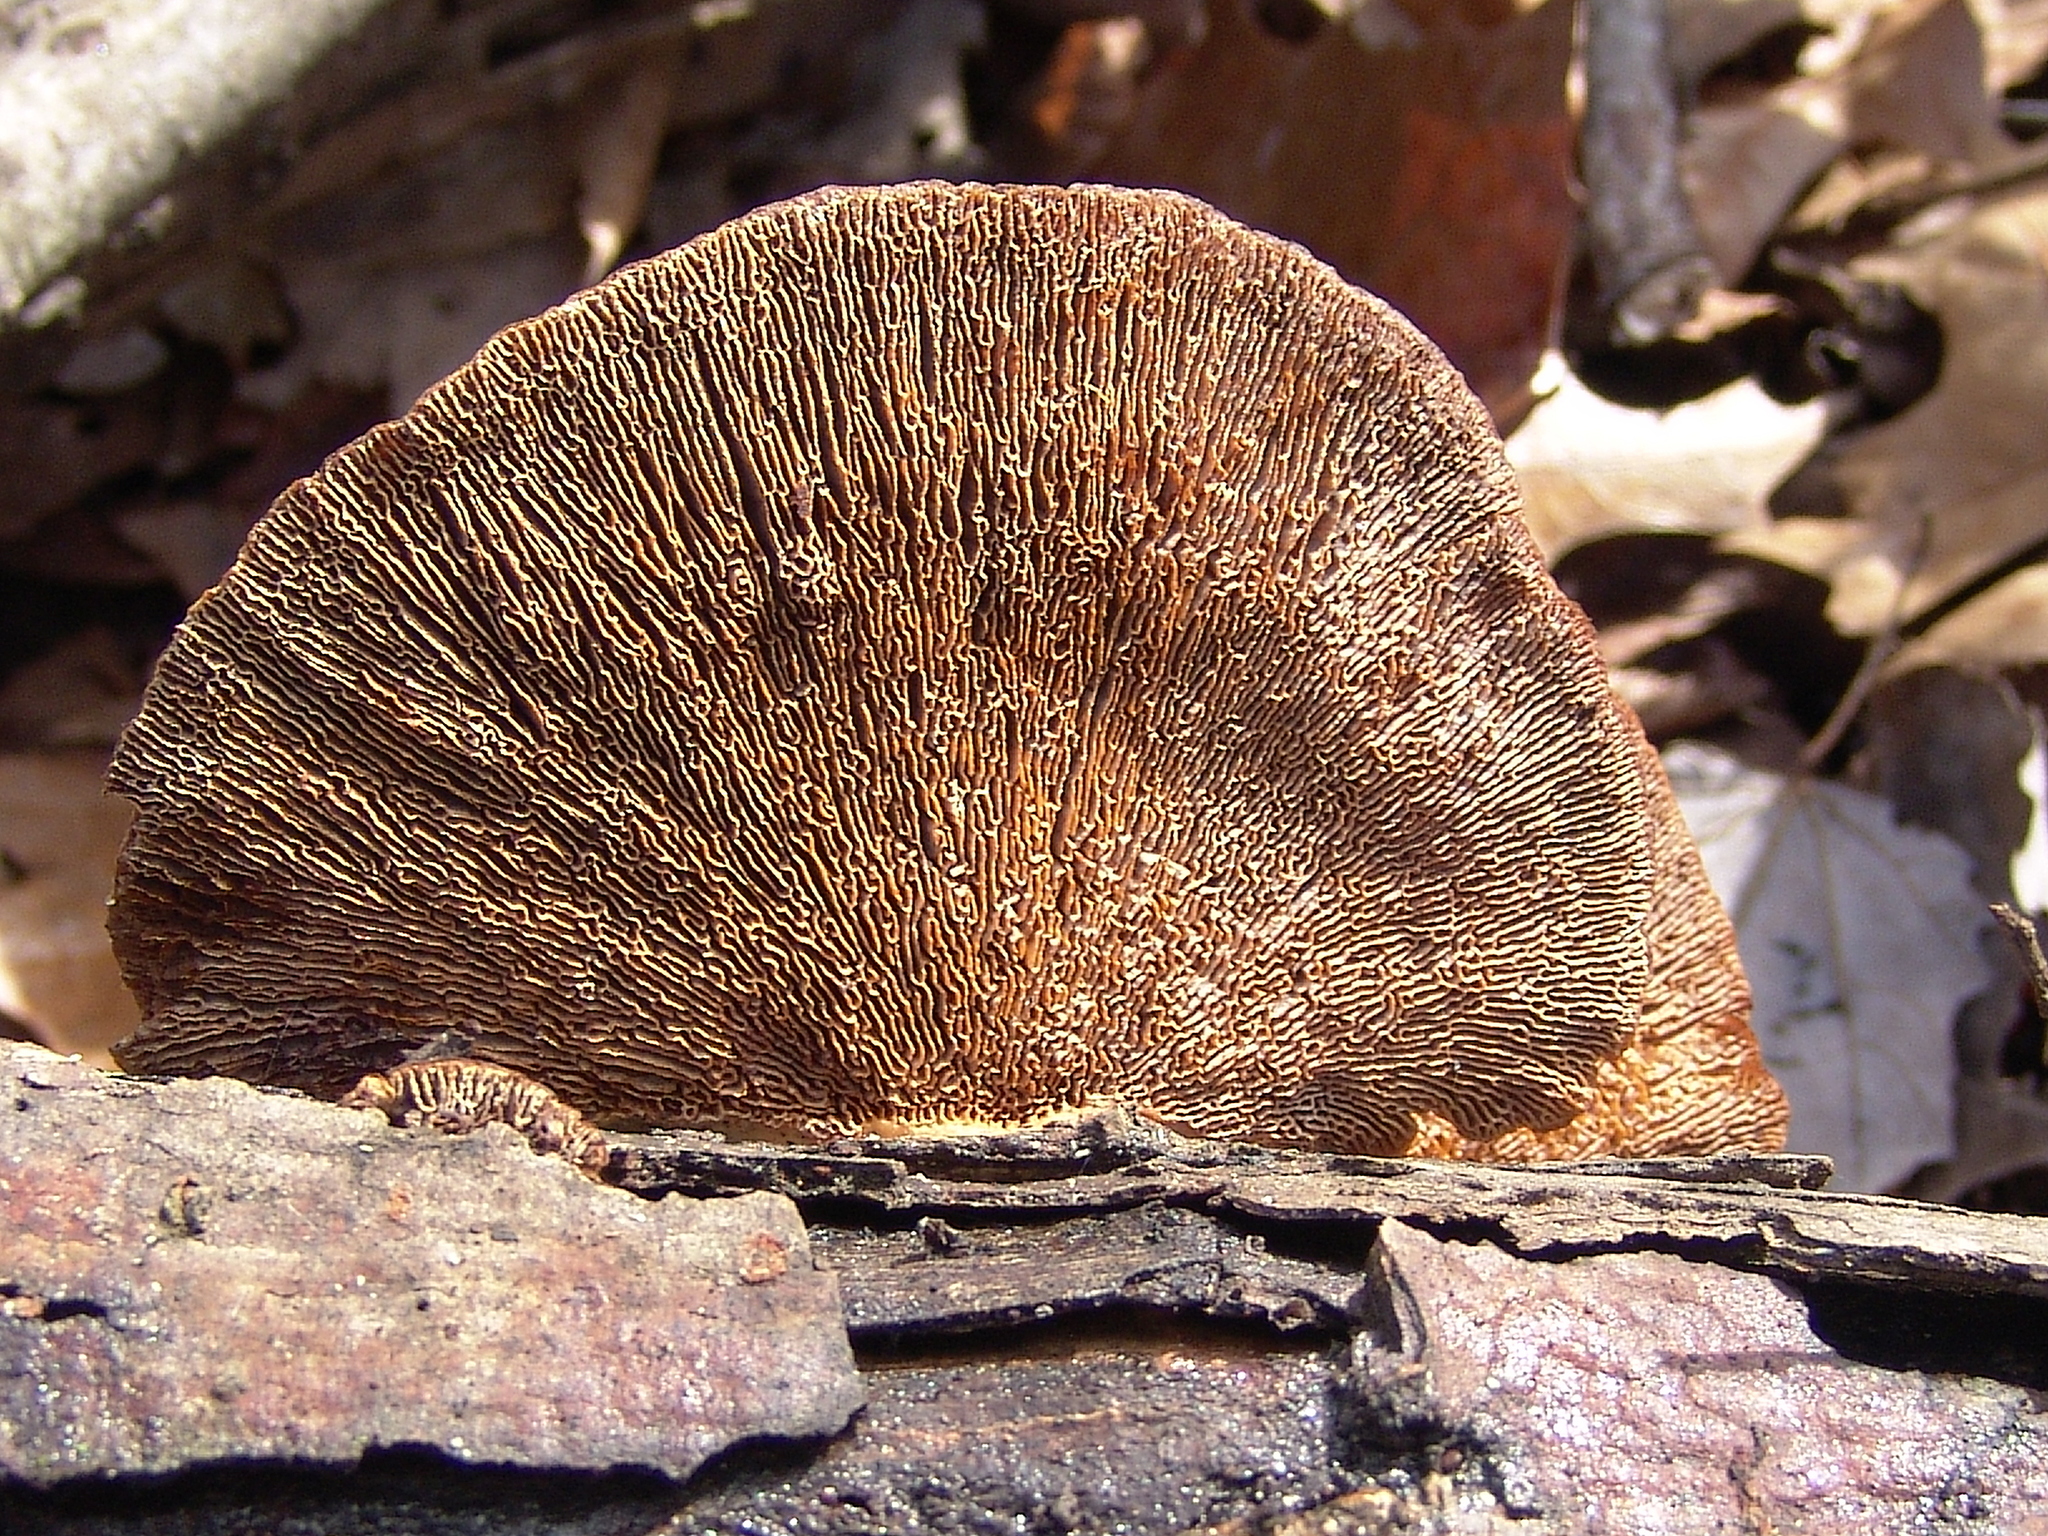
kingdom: Fungi
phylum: Basidiomycota
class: Agaricomycetes
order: Polyporales
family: Polyporaceae
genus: Daedaleopsis
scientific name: Daedaleopsis confragosa
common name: Blushing bracket
